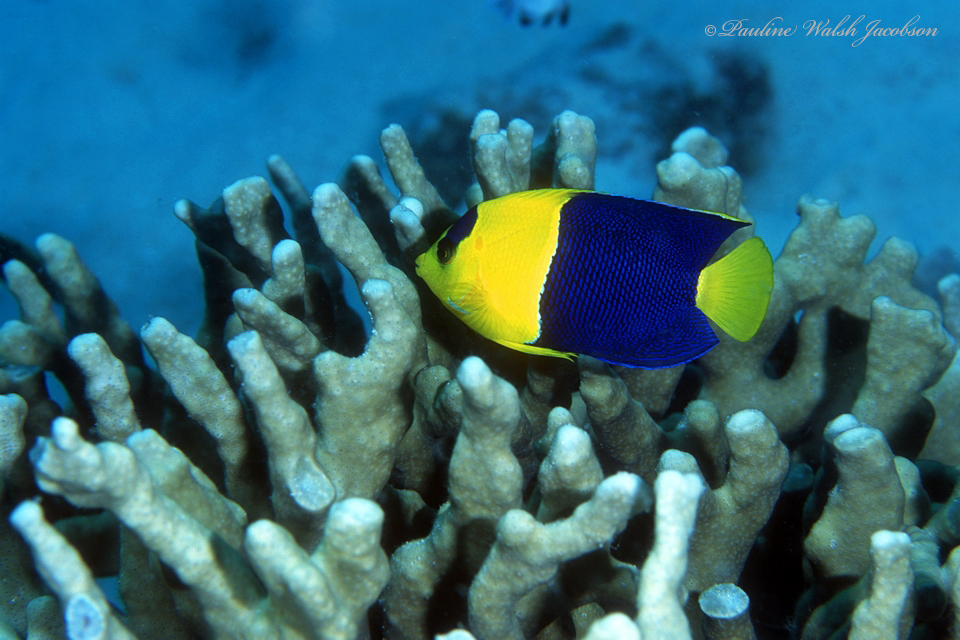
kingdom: Animalia
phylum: Chordata
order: Perciformes
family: Pomacanthidae
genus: Centropyge
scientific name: Centropyge bicolor
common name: Bicolor angelfish
